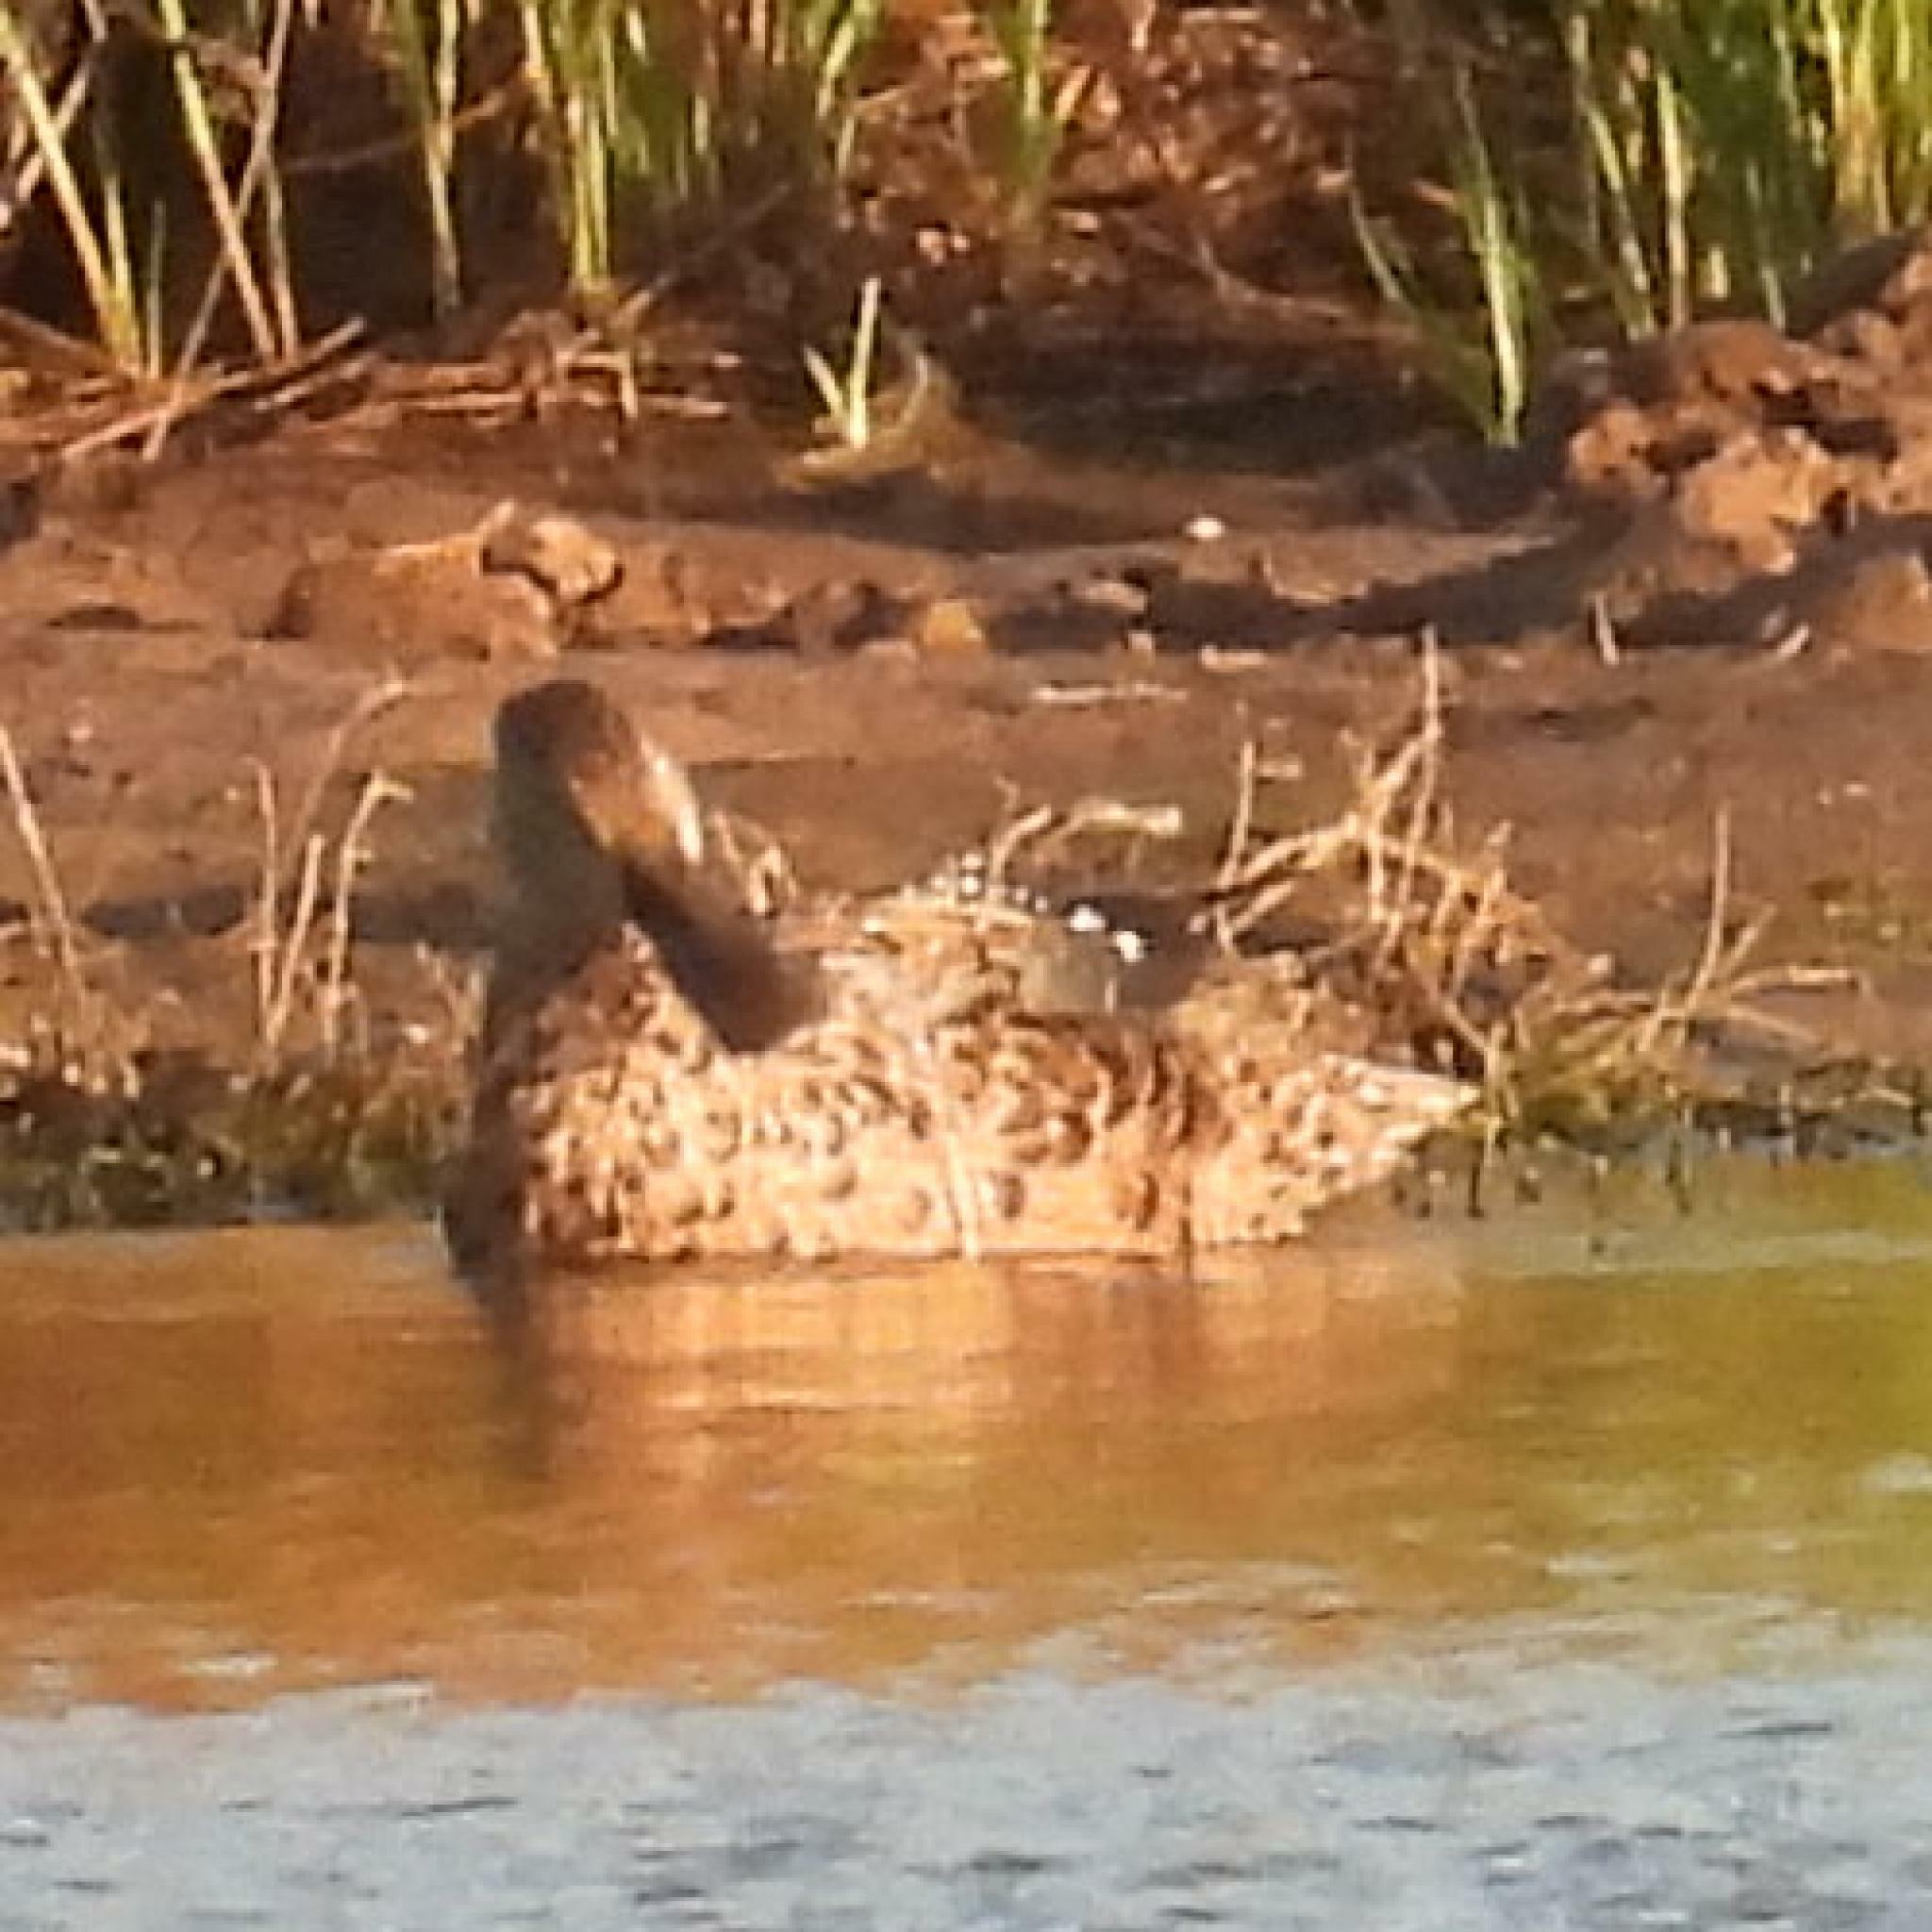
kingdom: Animalia
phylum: Chordata
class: Aves
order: Anseriformes
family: Anatidae
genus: Spatula
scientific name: Spatula smithii
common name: Cape shoveler
